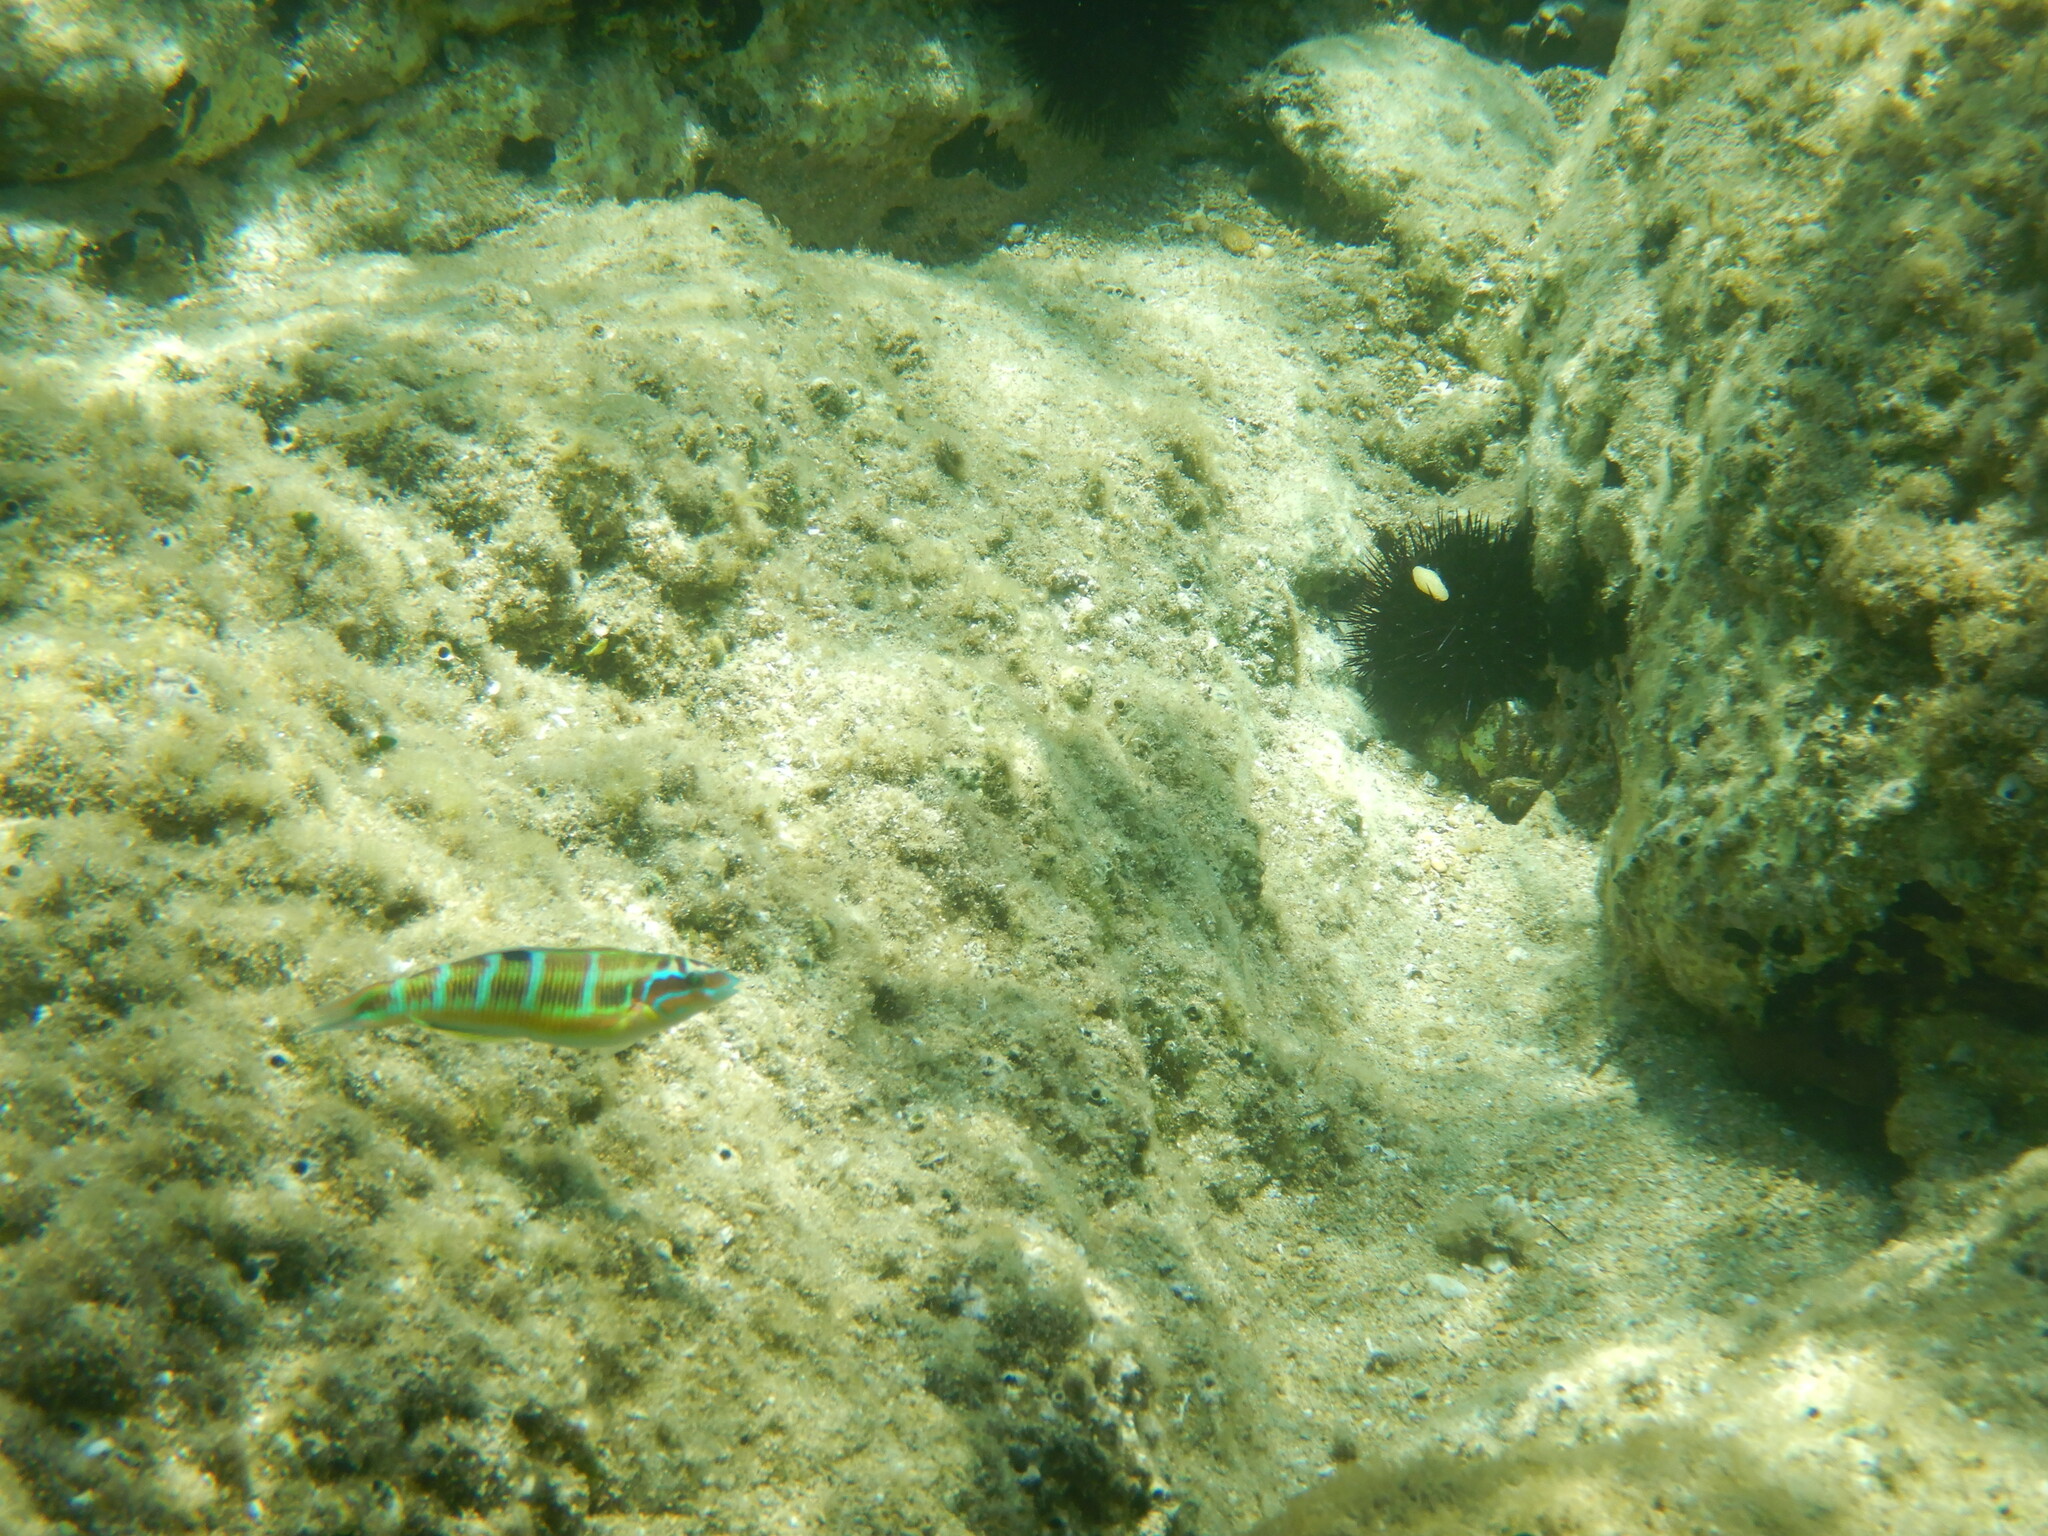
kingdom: Animalia
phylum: Chordata
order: Perciformes
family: Labridae
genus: Thalassoma
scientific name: Thalassoma pavo
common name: Ornate wrasse
